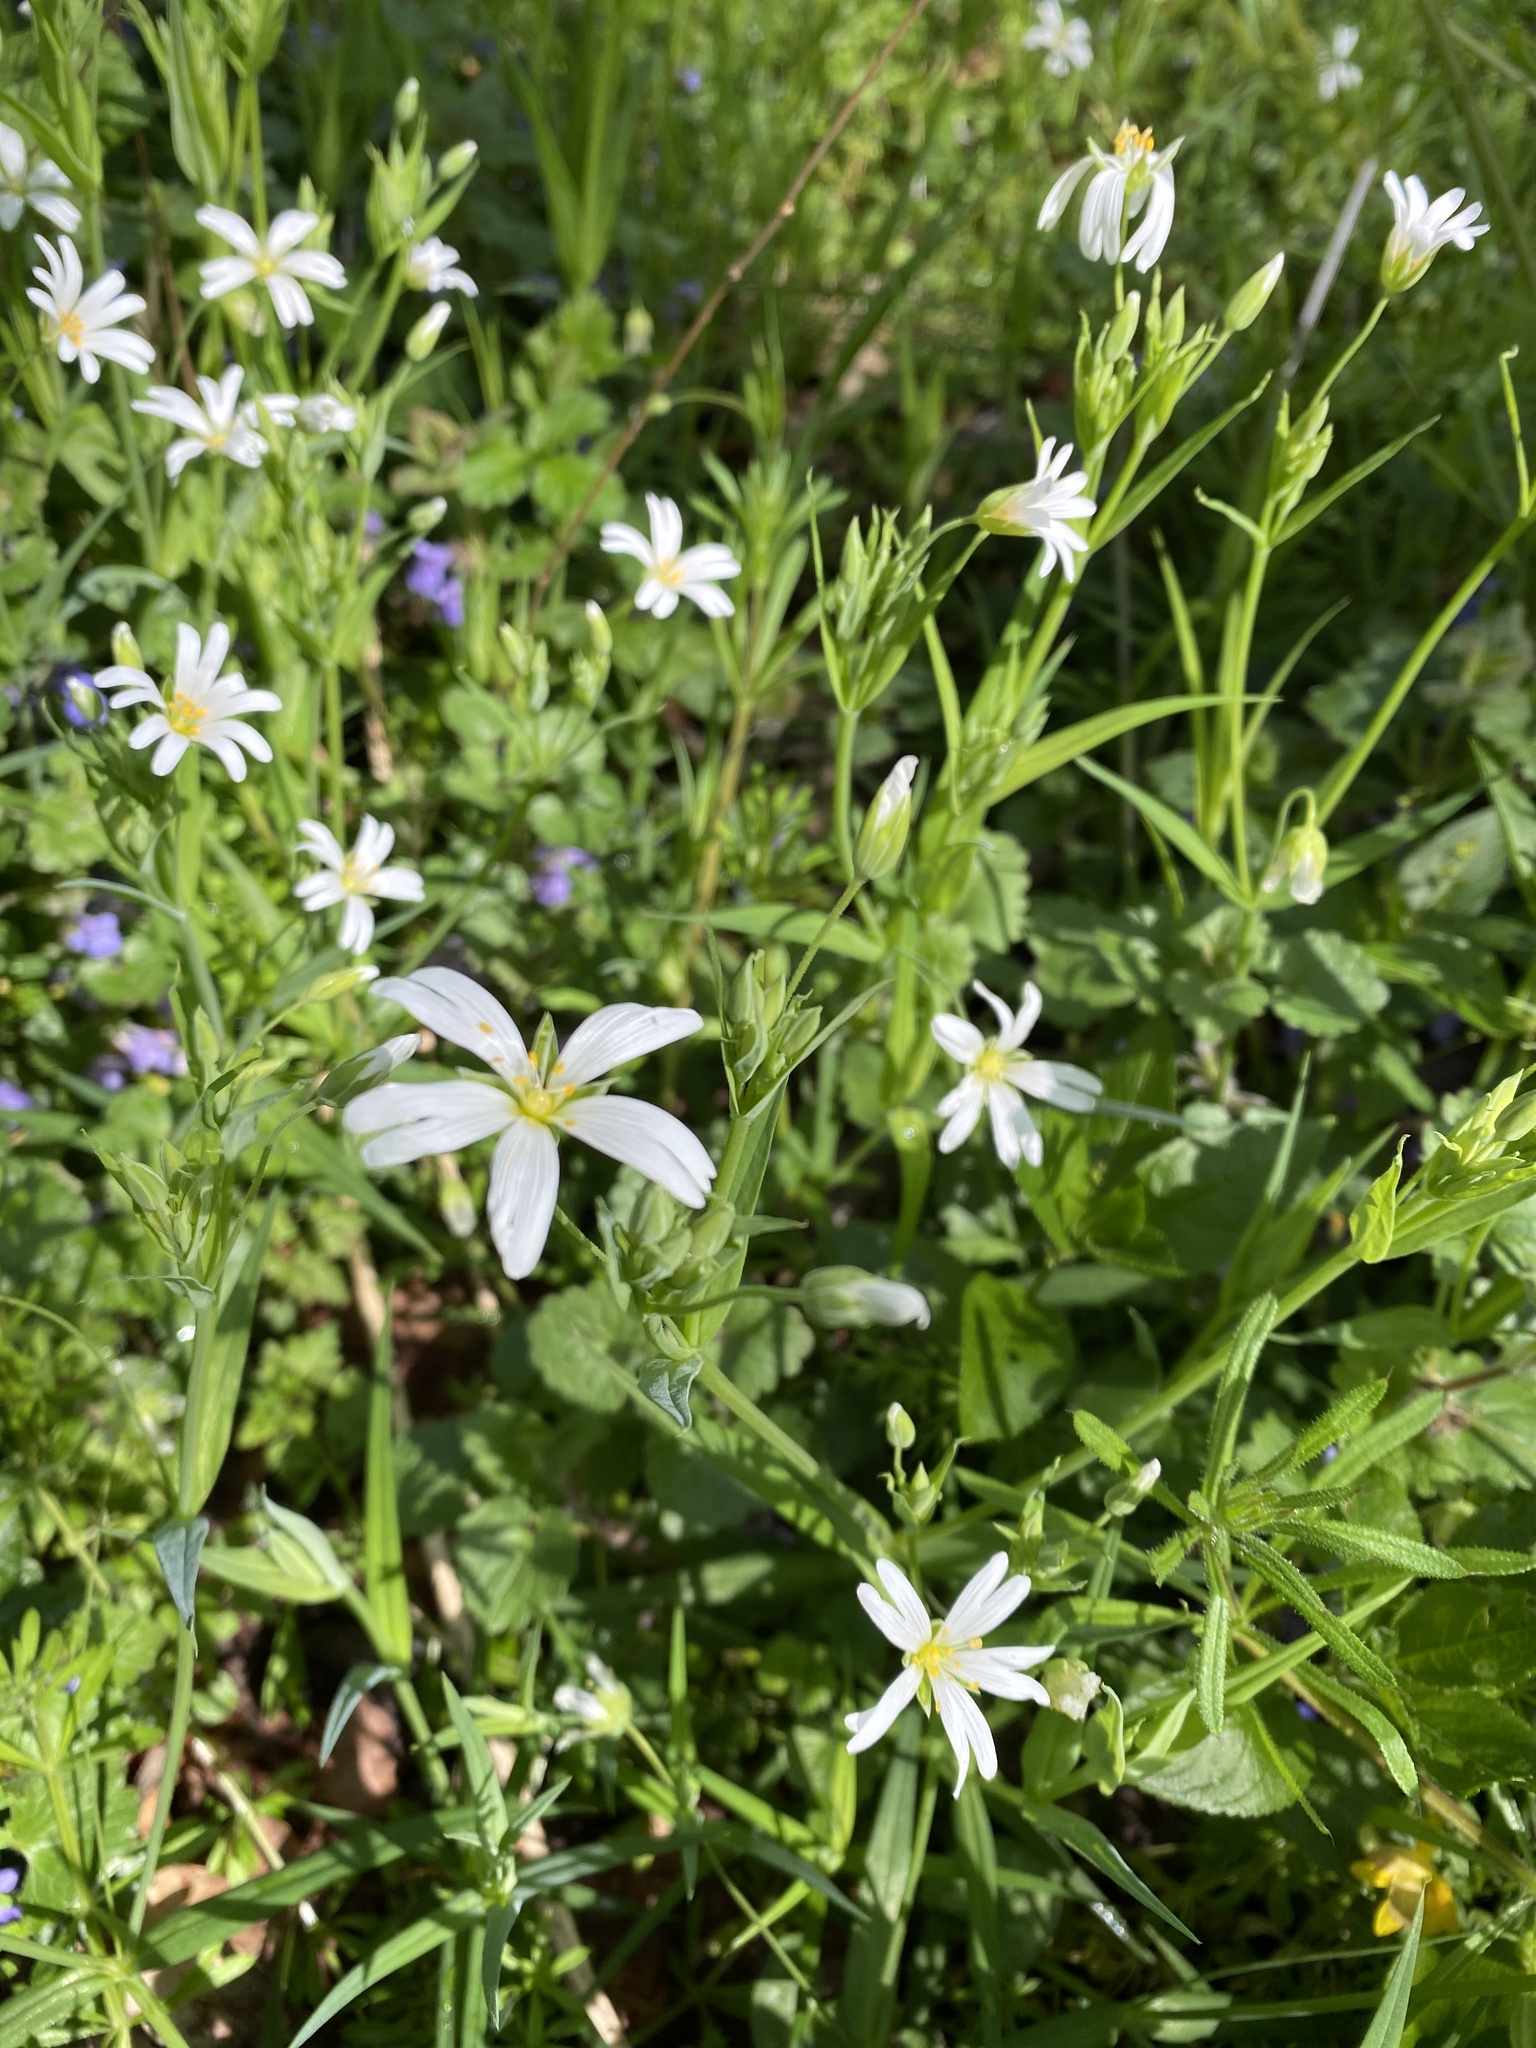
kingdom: Plantae
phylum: Tracheophyta
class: Magnoliopsida
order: Caryophyllales
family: Caryophyllaceae
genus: Rabelera
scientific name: Rabelera holostea
